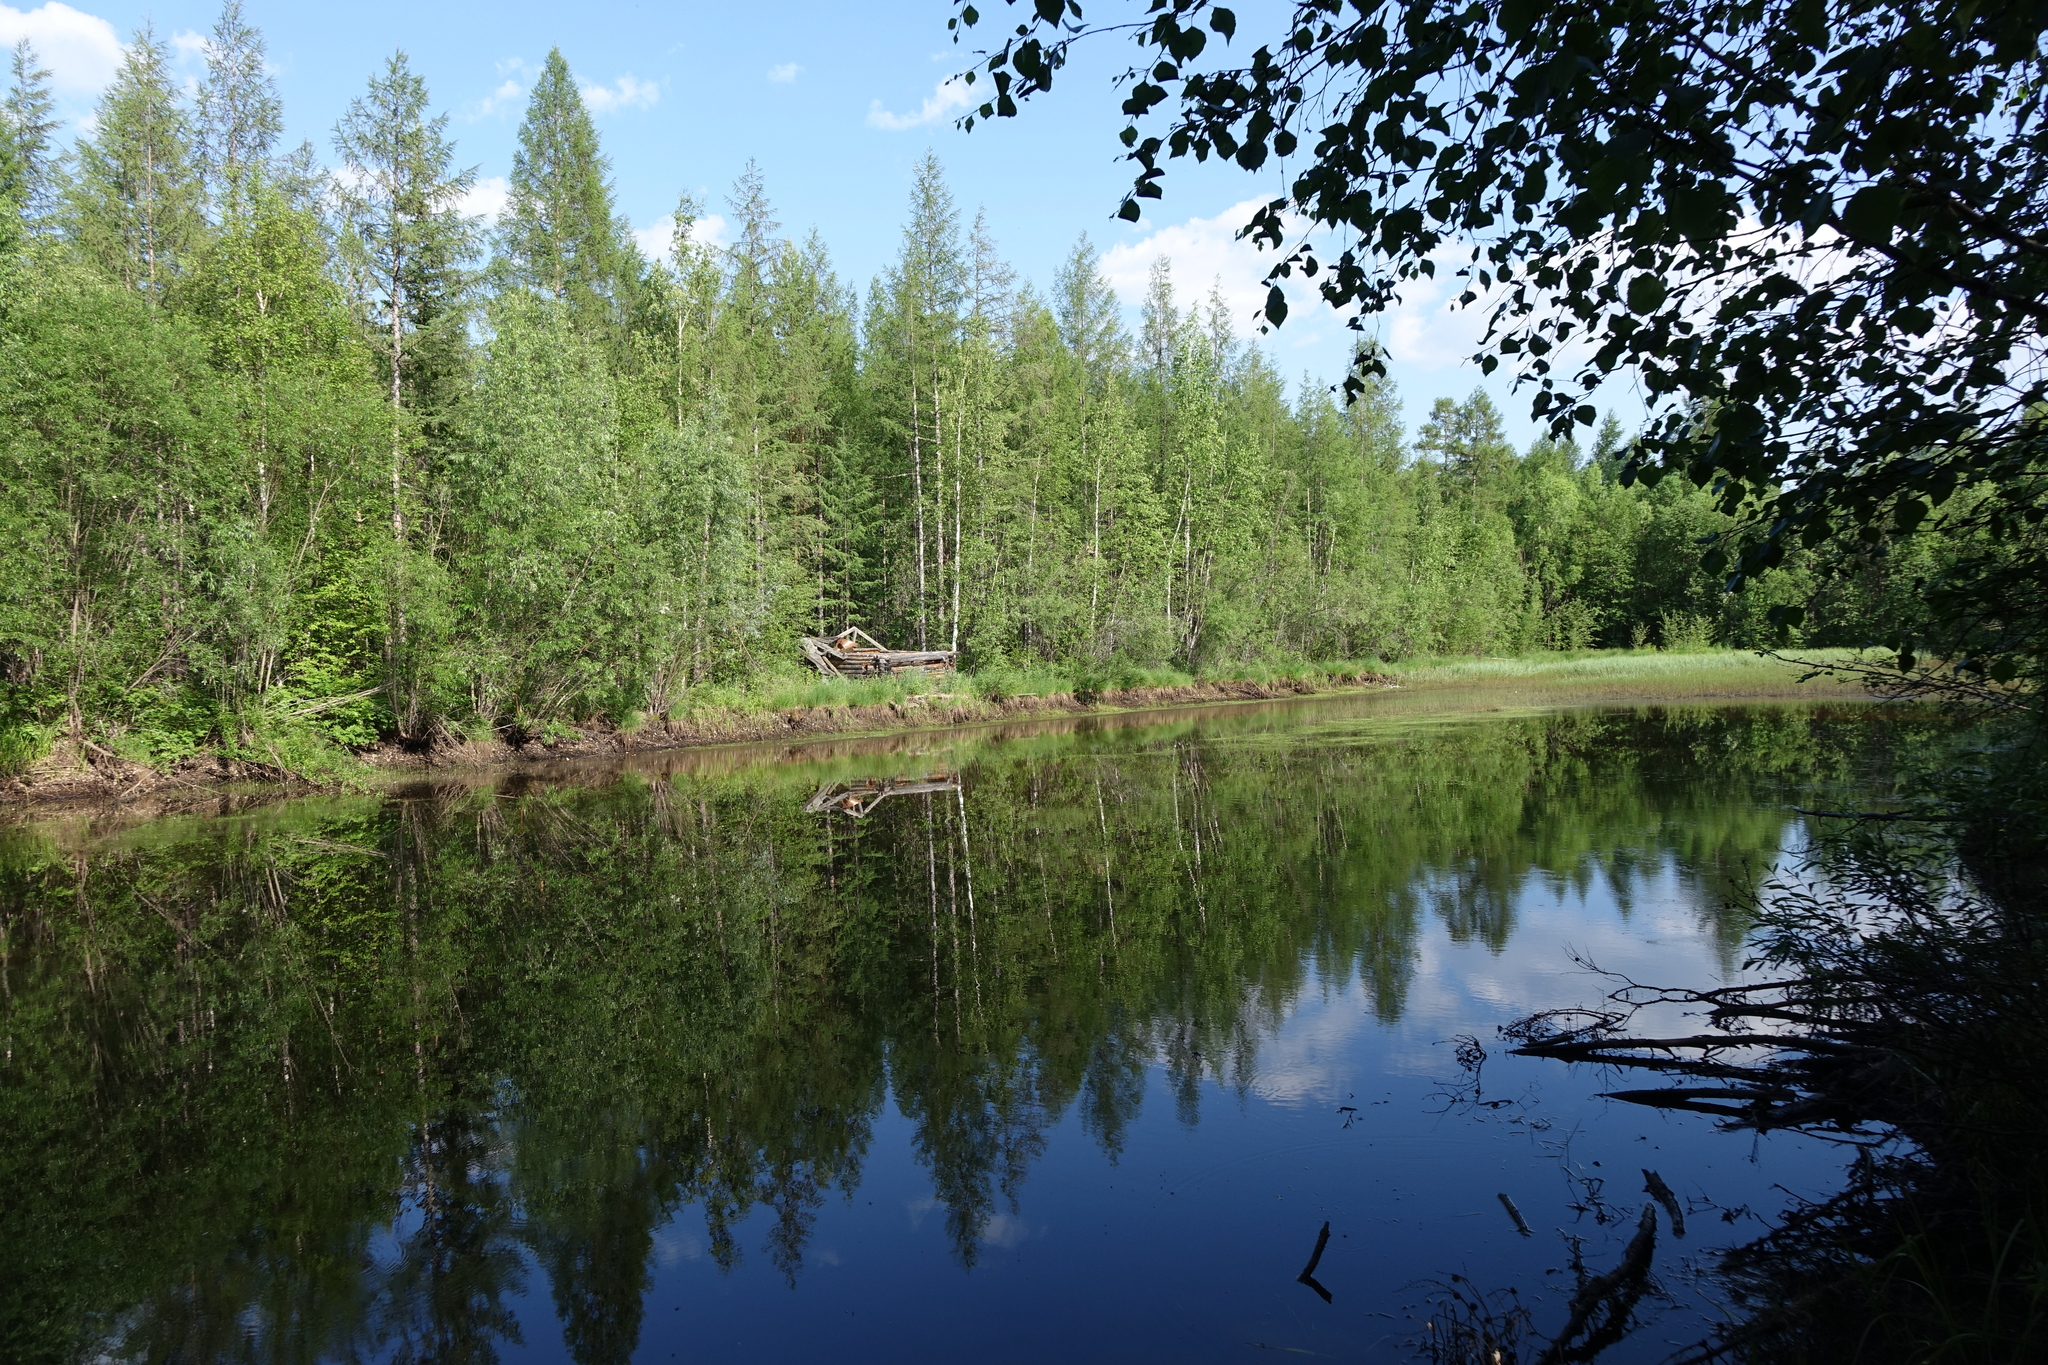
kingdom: Plantae
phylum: Tracheophyta
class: Pinopsida
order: Pinales
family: Pinaceae
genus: Larix
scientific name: Larix gmelinii
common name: Dahurian larch
